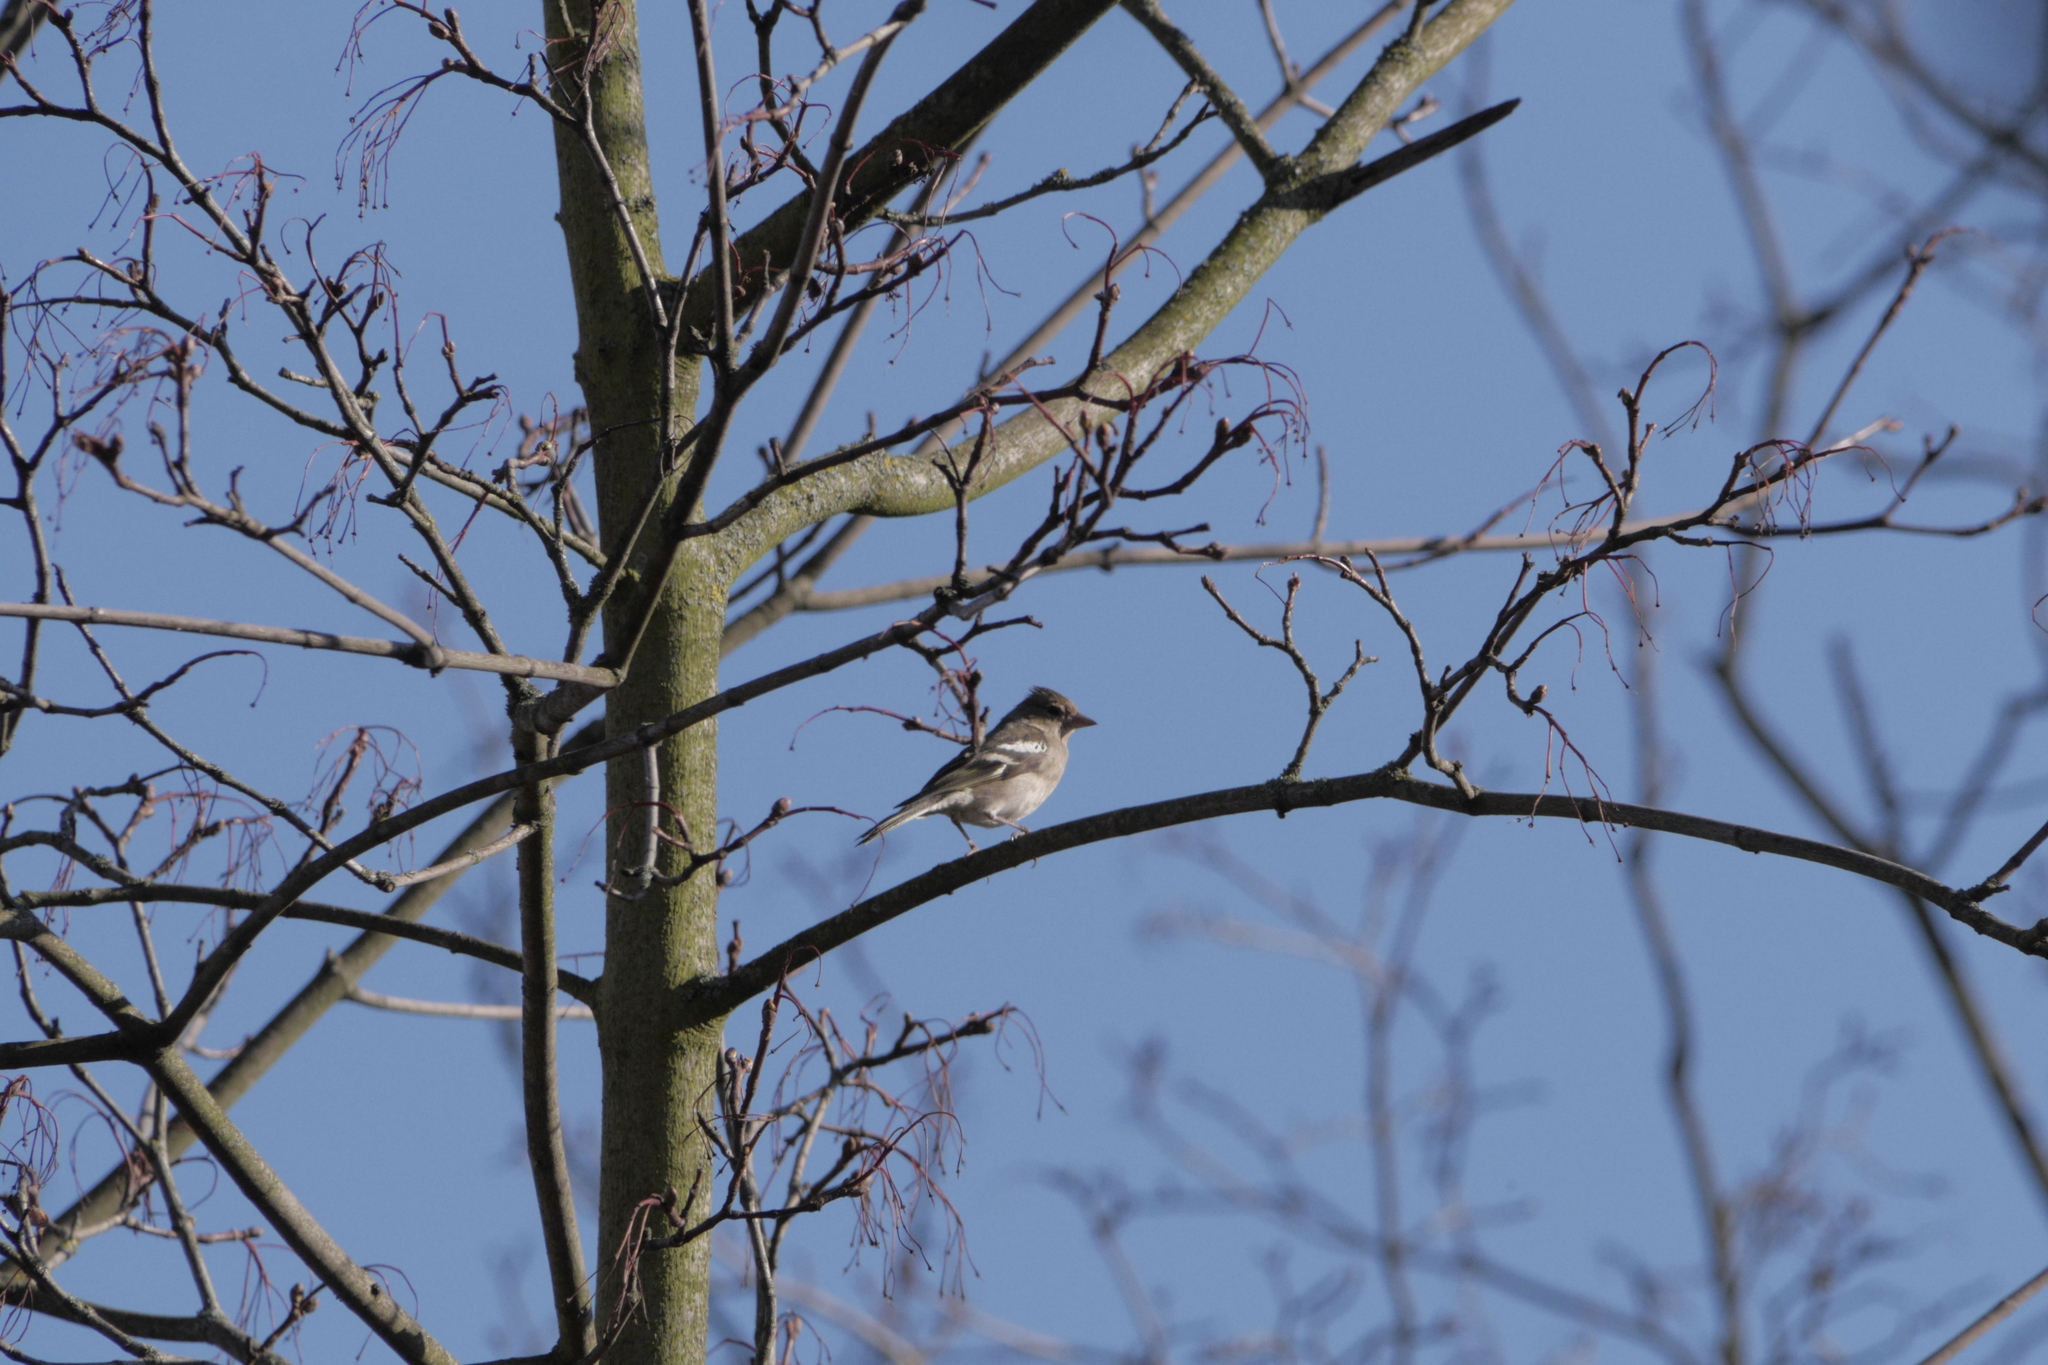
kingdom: Animalia
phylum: Chordata
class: Aves
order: Passeriformes
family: Fringillidae
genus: Fringilla
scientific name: Fringilla coelebs
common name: Common chaffinch
